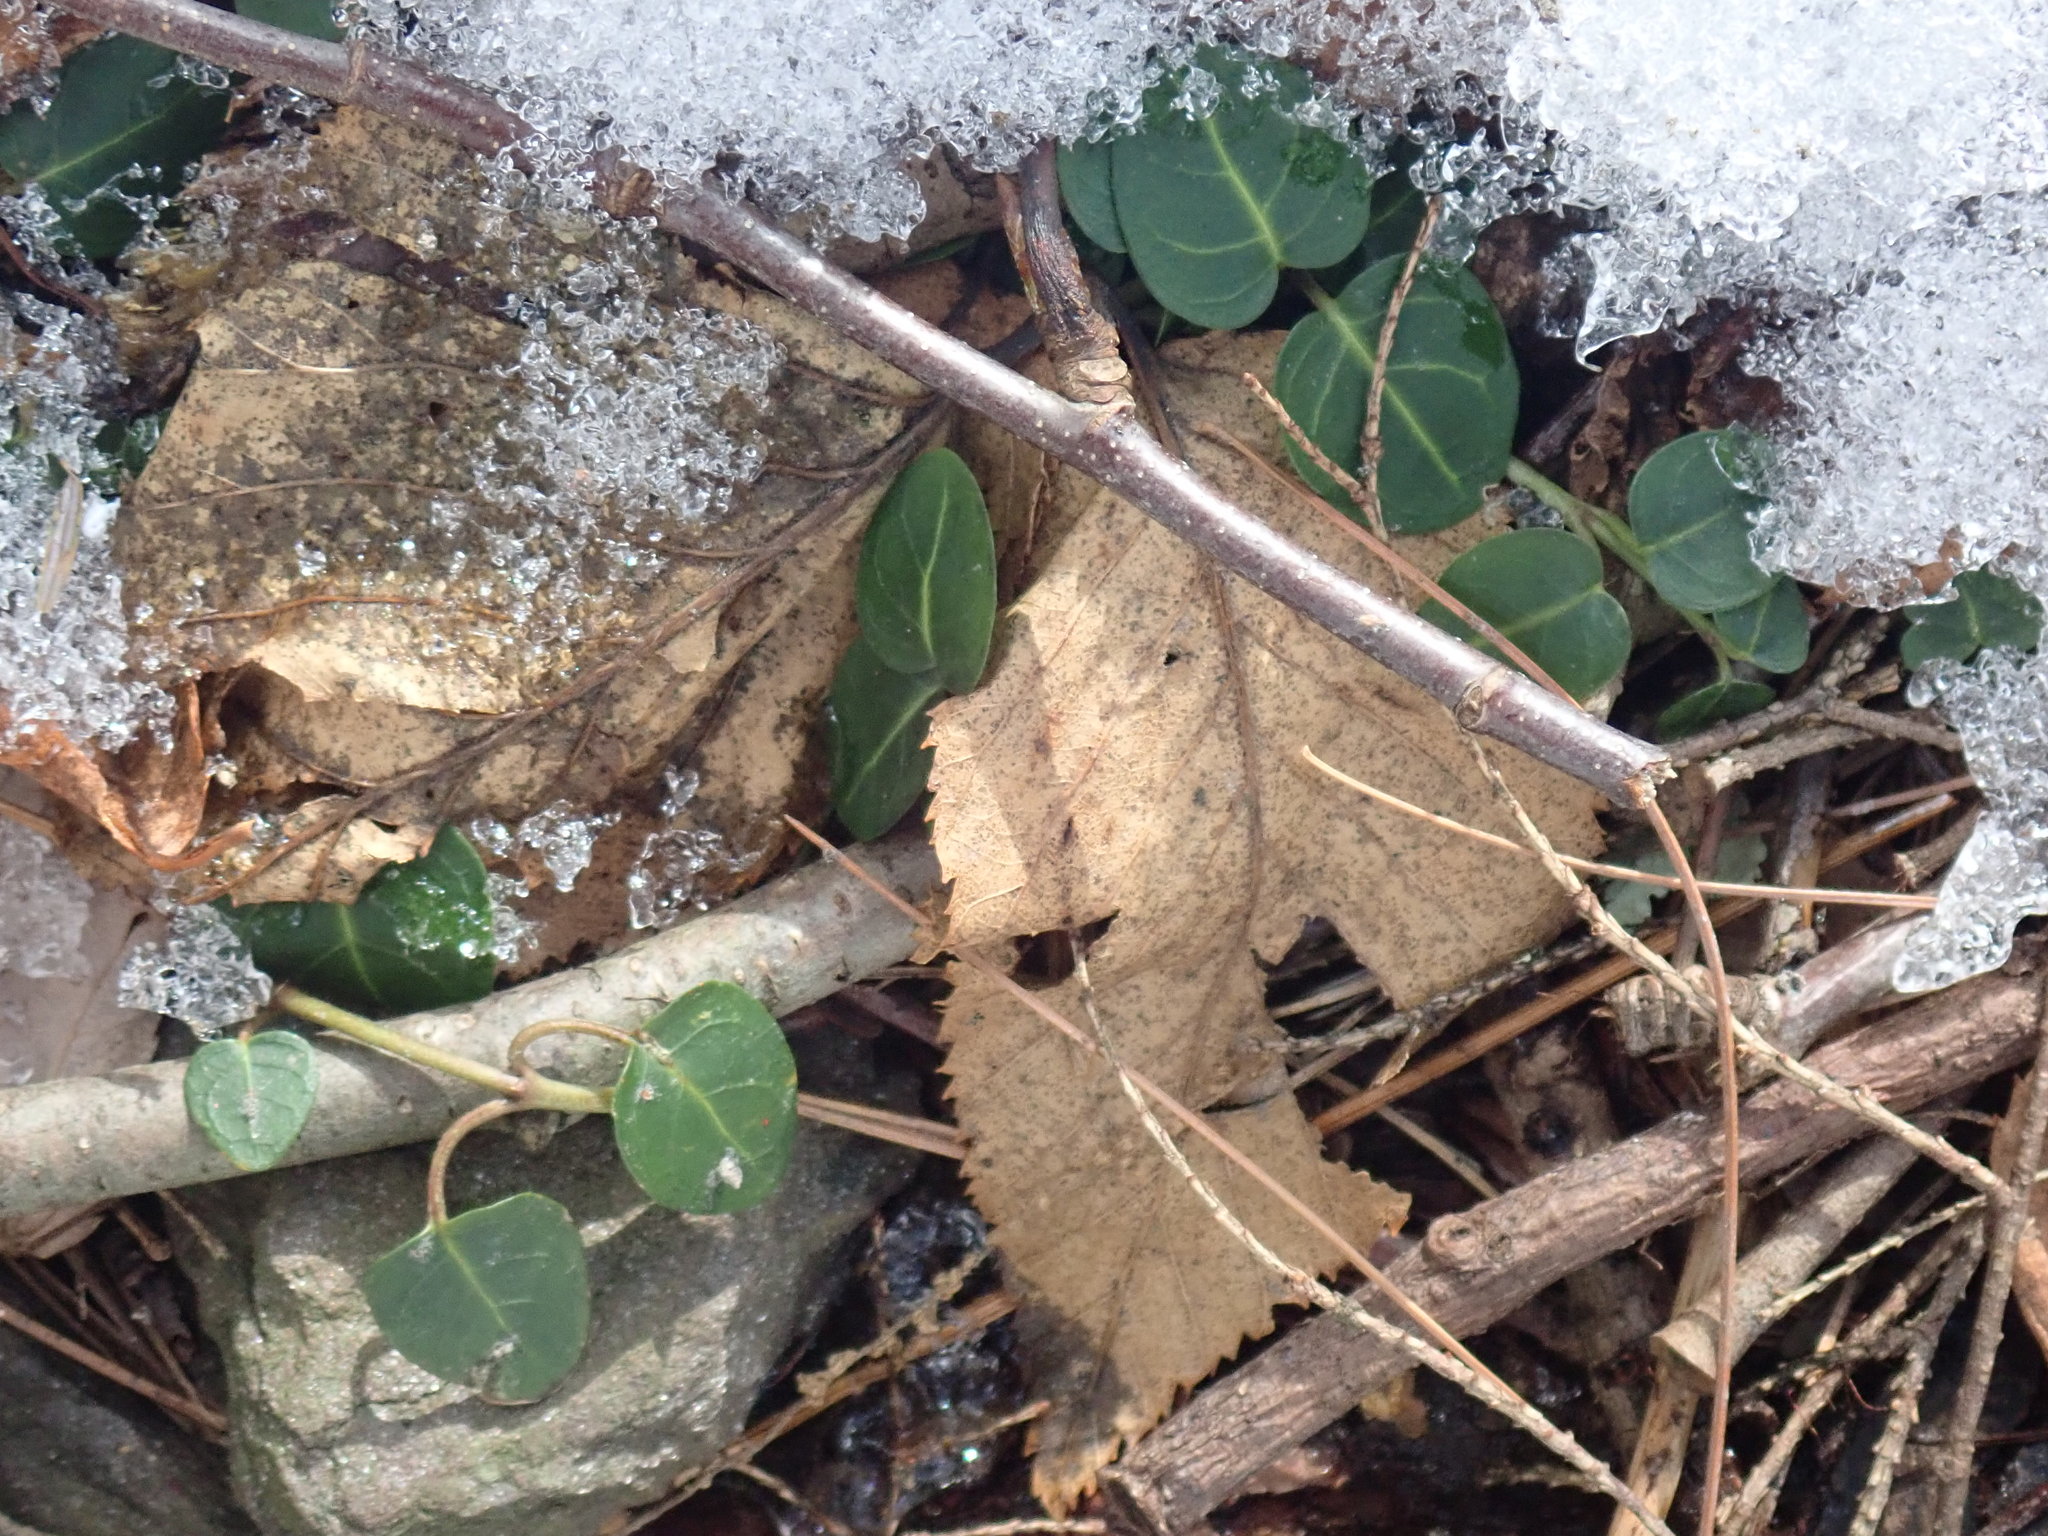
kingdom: Plantae
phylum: Tracheophyta
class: Magnoliopsida
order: Gentianales
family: Rubiaceae
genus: Mitchella
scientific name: Mitchella repens
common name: Partridge-berry
